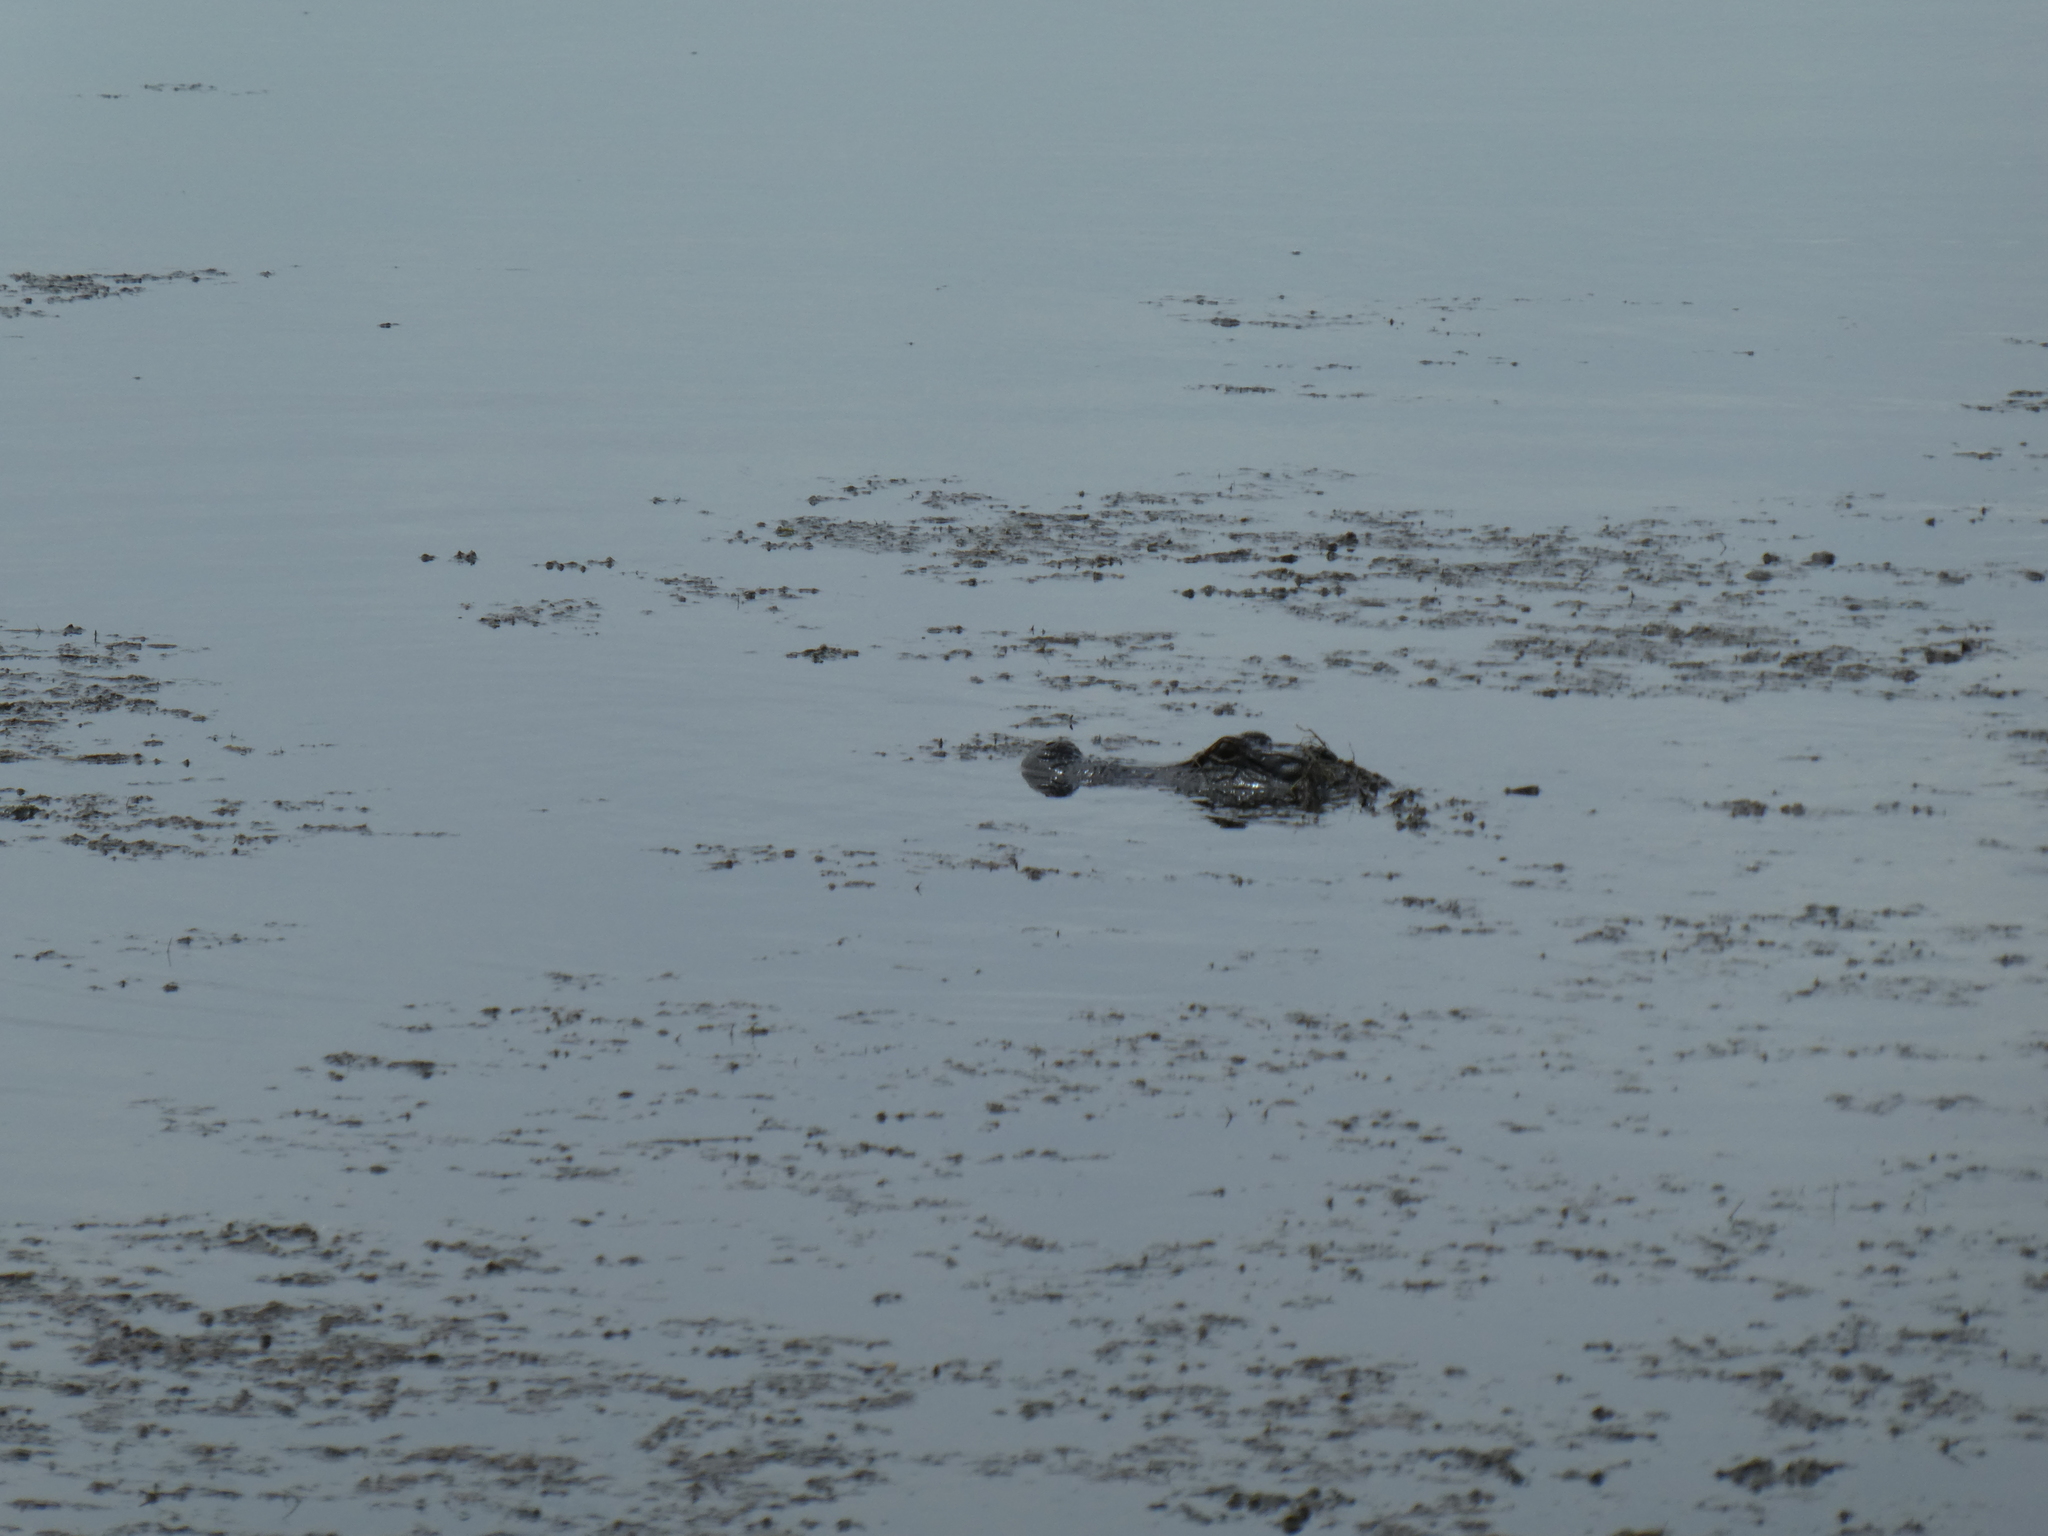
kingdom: Animalia
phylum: Chordata
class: Crocodylia
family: Alligatoridae
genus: Alligator
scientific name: Alligator mississippiensis
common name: American alligator
